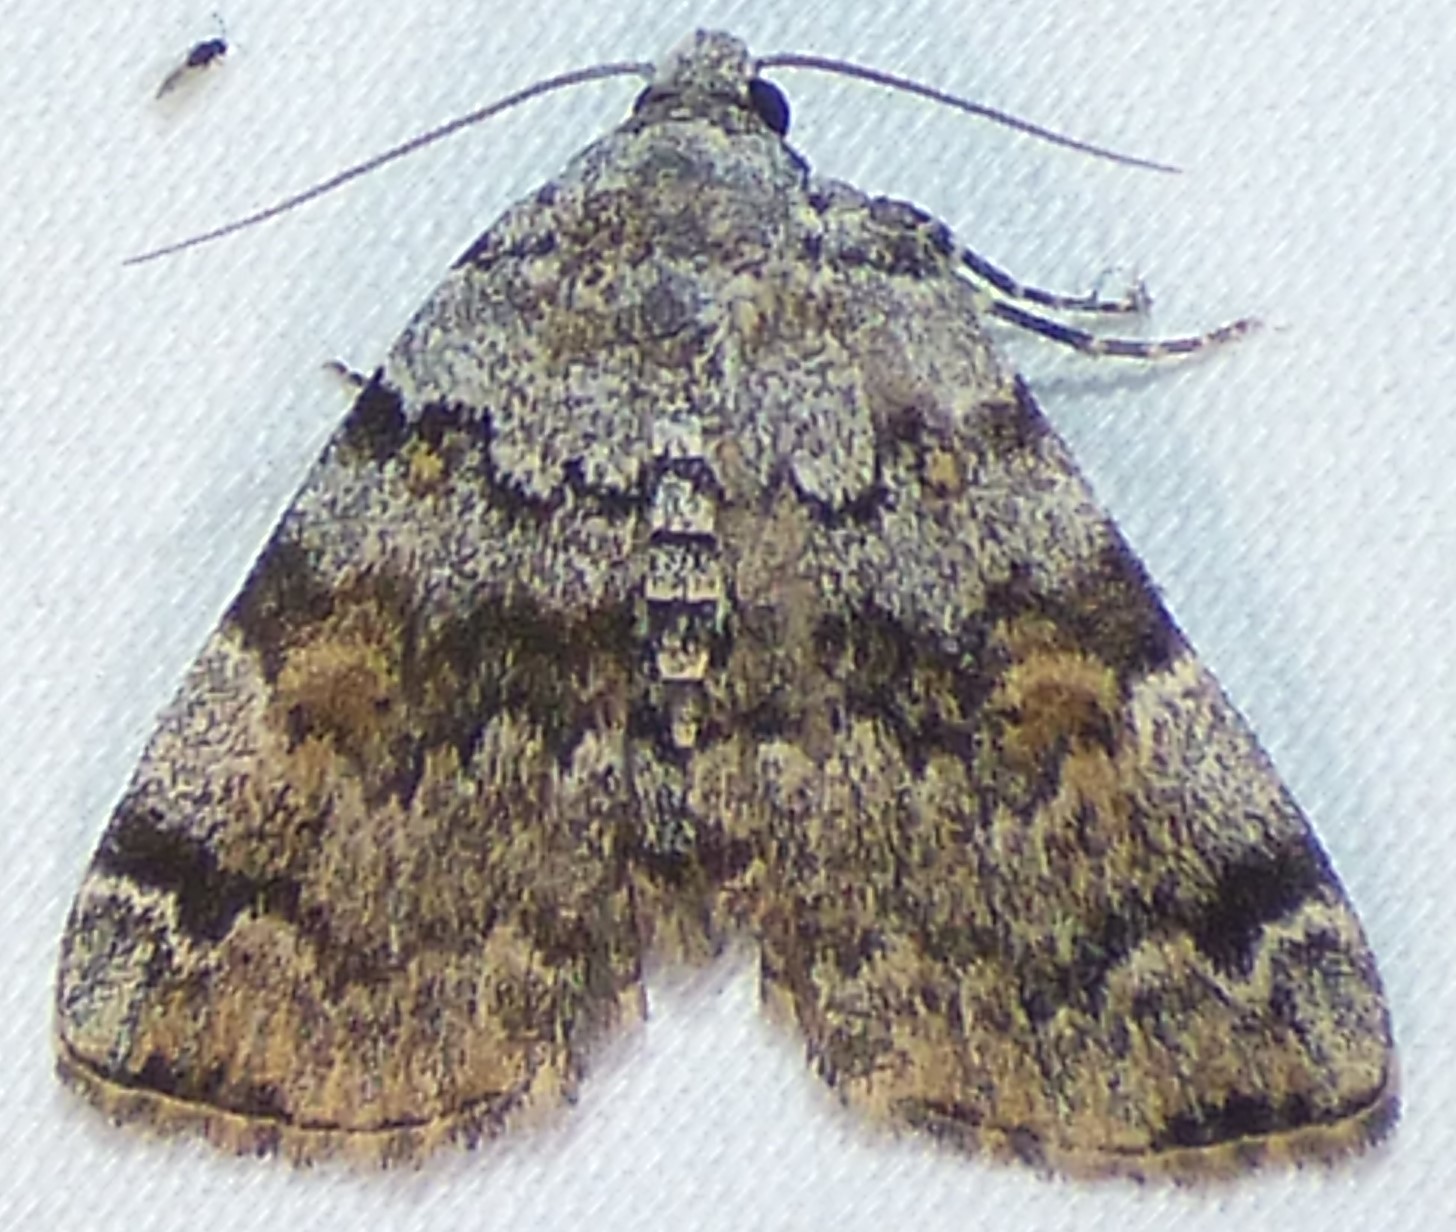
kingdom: Animalia
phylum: Arthropoda
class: Insecta
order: Lepidoptera
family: Erebidae
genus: Idia
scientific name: Idia americalis
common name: American idia moth
